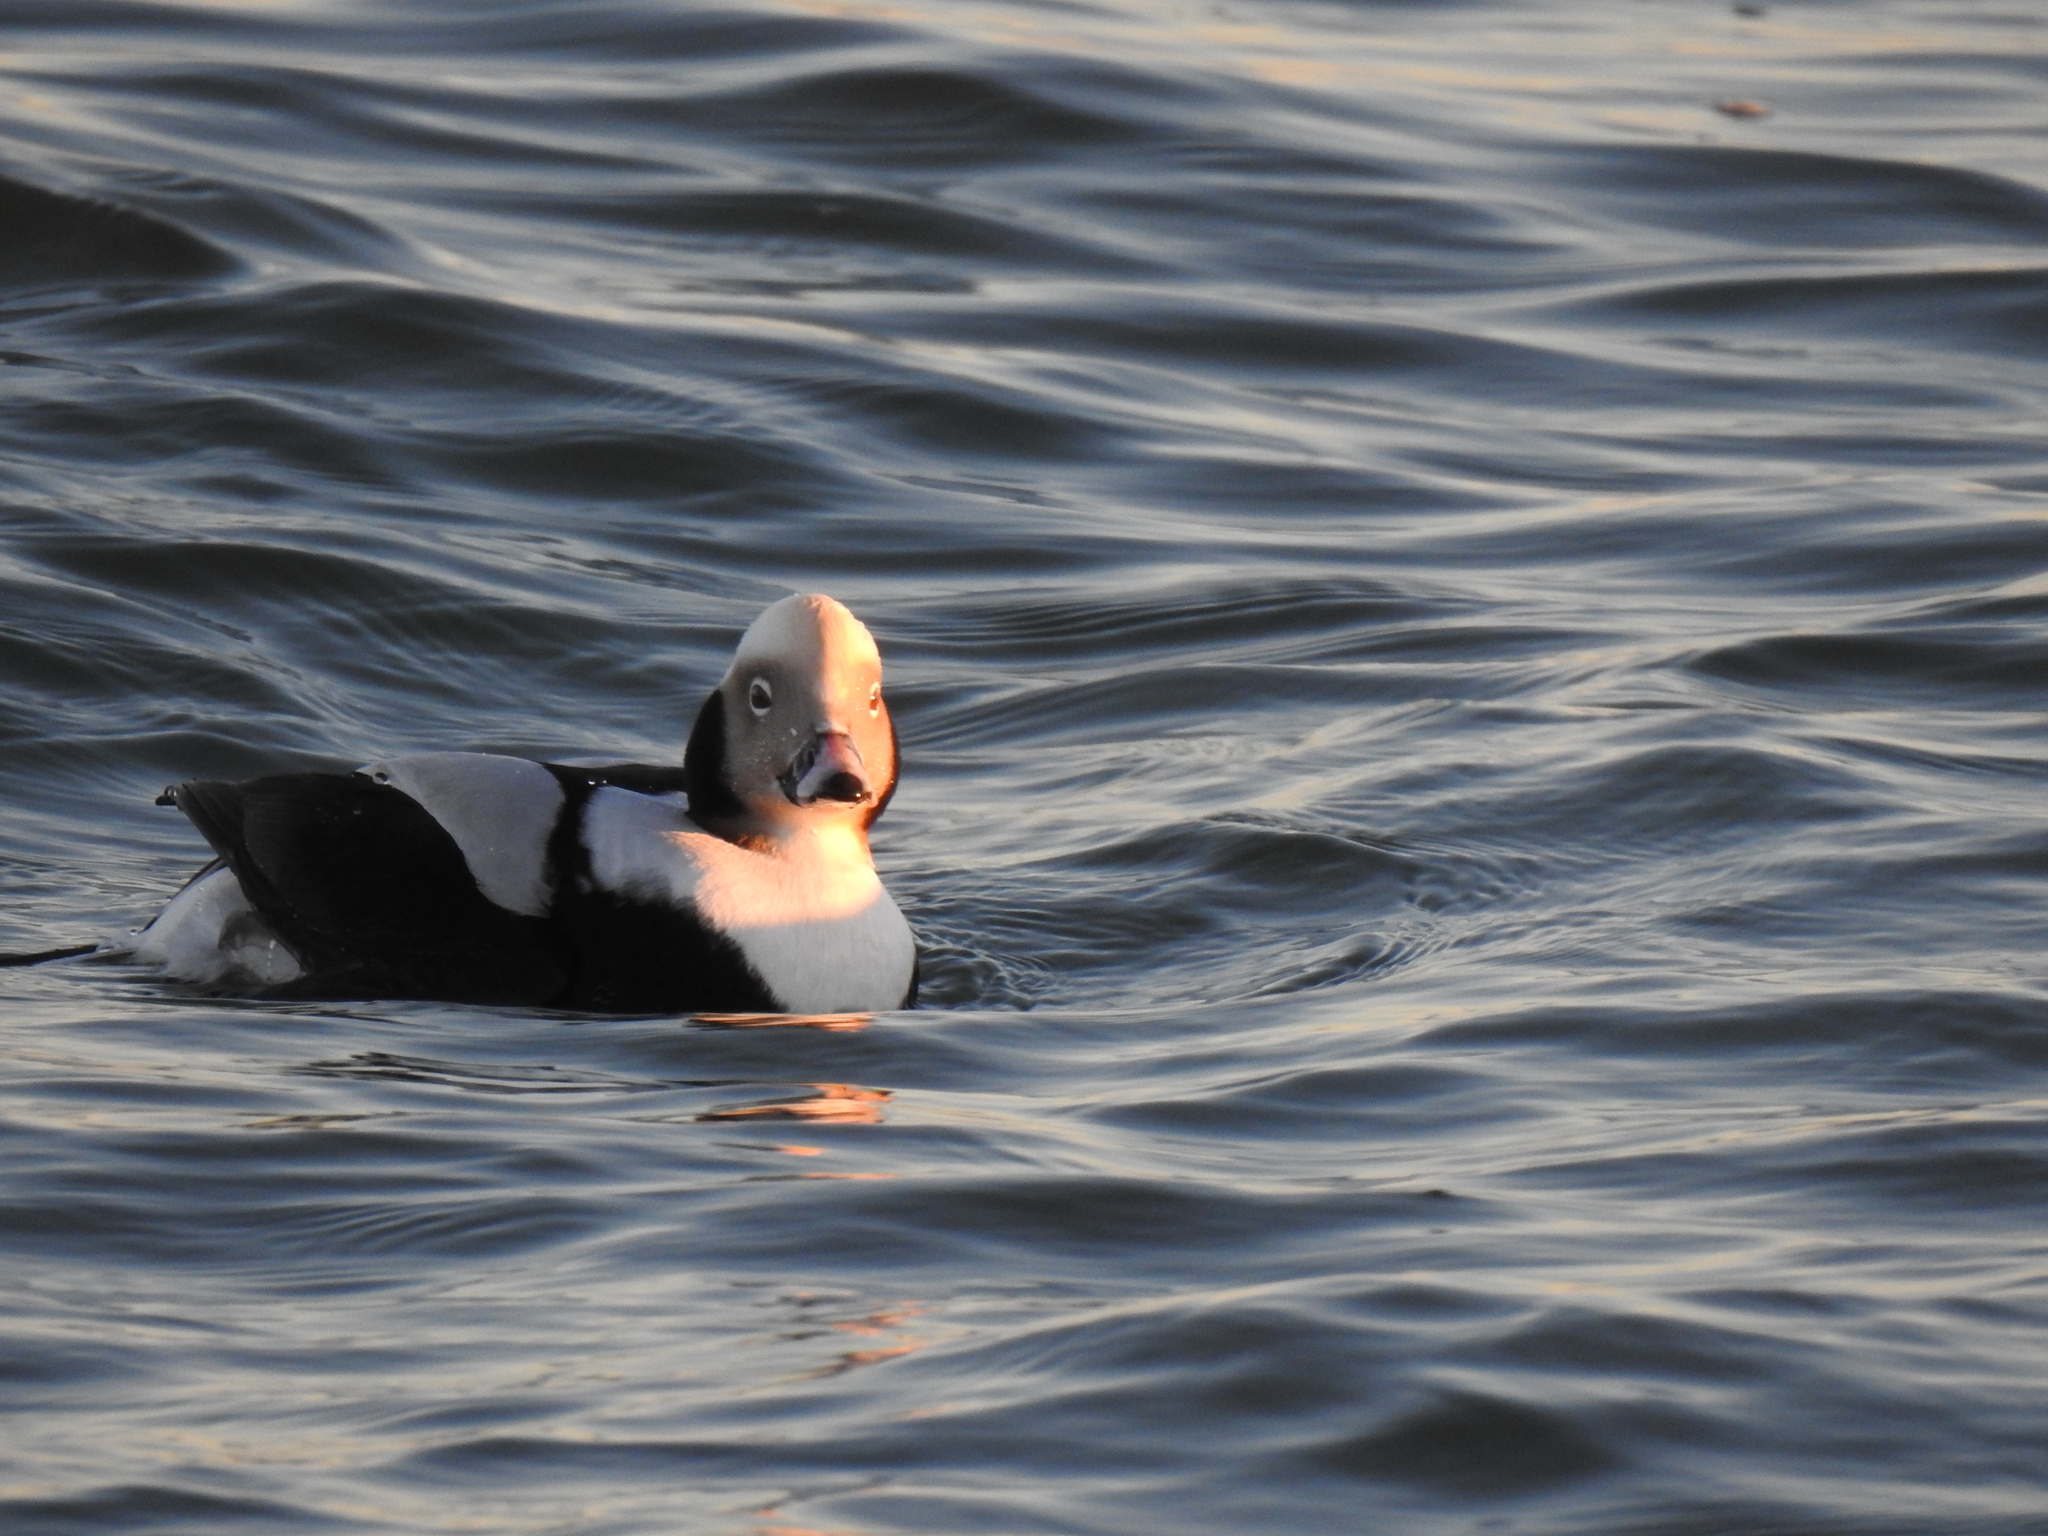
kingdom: Animalia
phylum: Chordata
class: Aves
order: Anseriformes
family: Anatidae
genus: Clangula
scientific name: Clangula hyemalis
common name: Long-tailed duck
